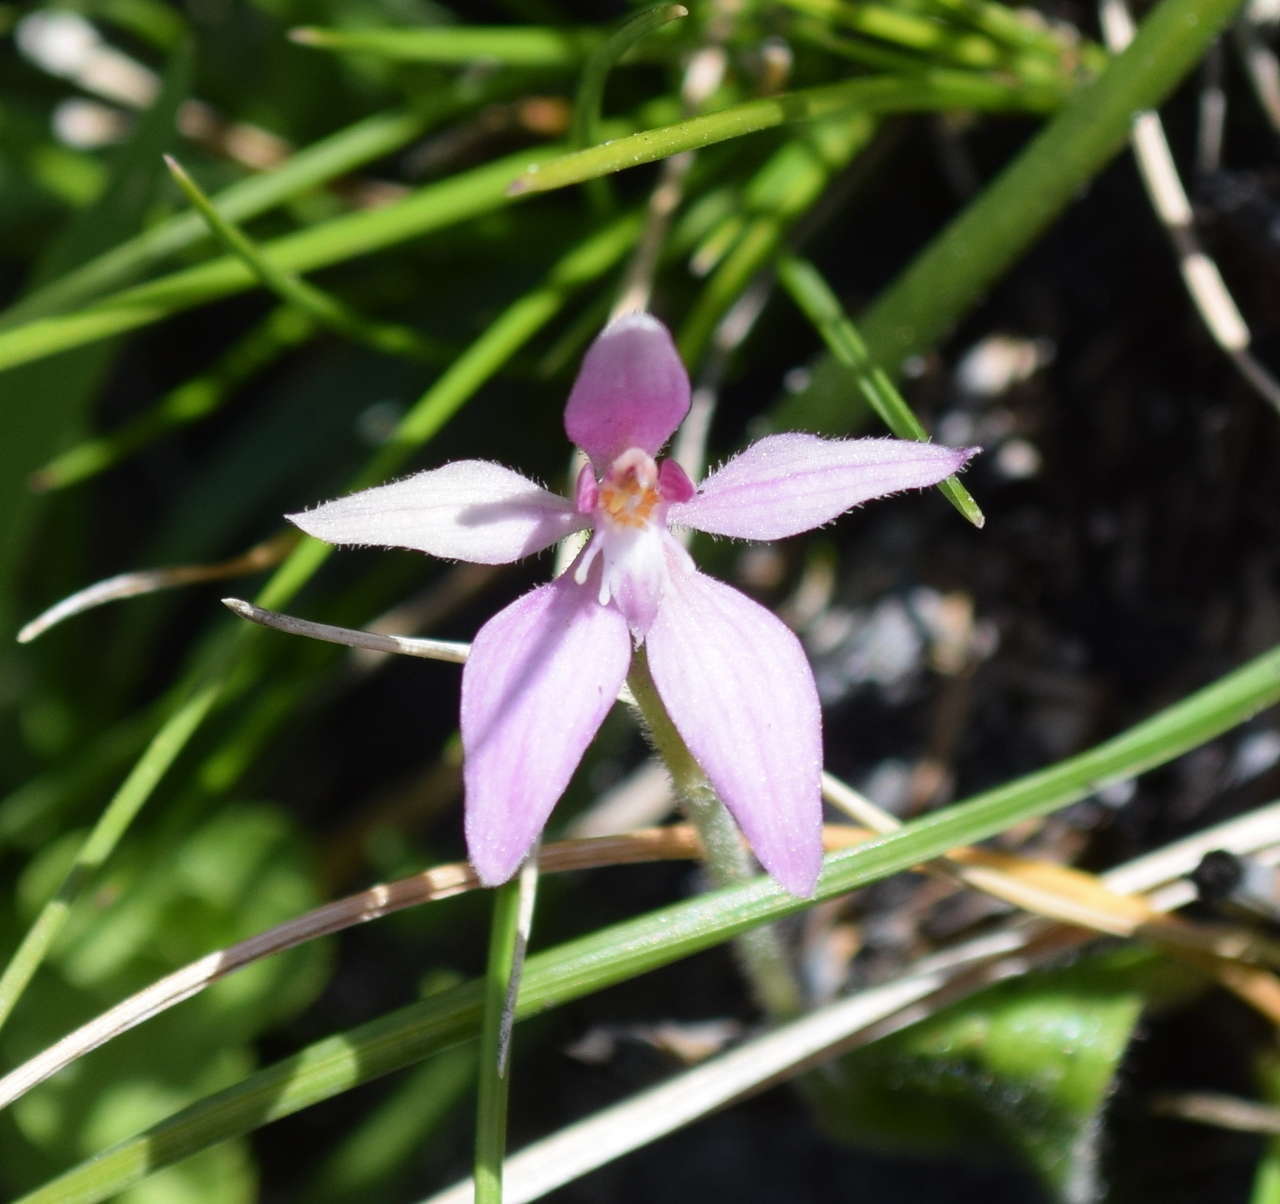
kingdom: Plantae
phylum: Tracheophyta
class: Liliopsida
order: Asparagales
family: Orchidaceae
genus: Caladenia
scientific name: Caladenia latifolia
